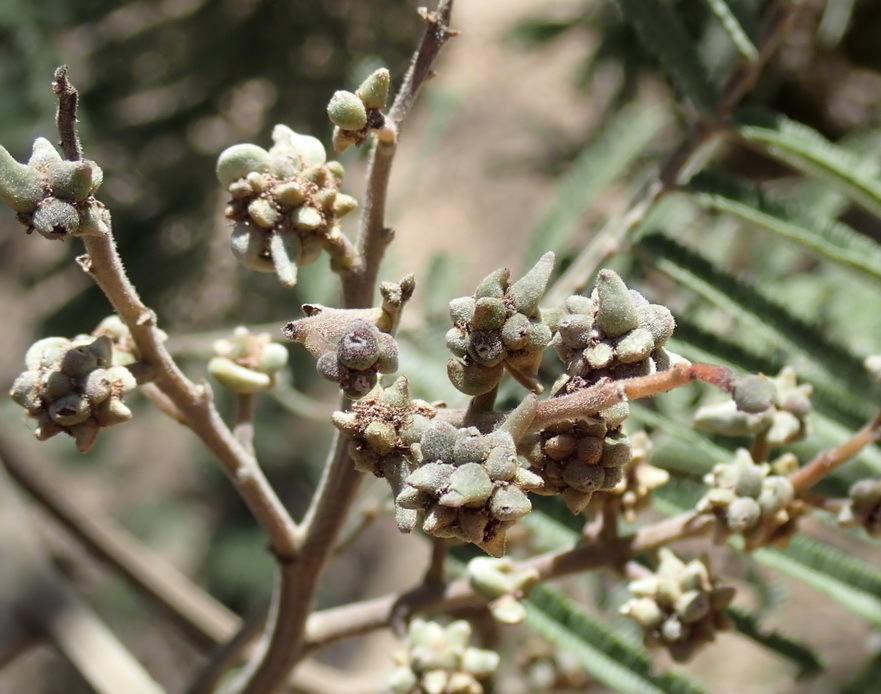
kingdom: Animalia
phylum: Arthropoda
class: Insecta
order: Diptera
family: Cecidomyiidae
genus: Dasineura
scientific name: Dasineura rubiformis
